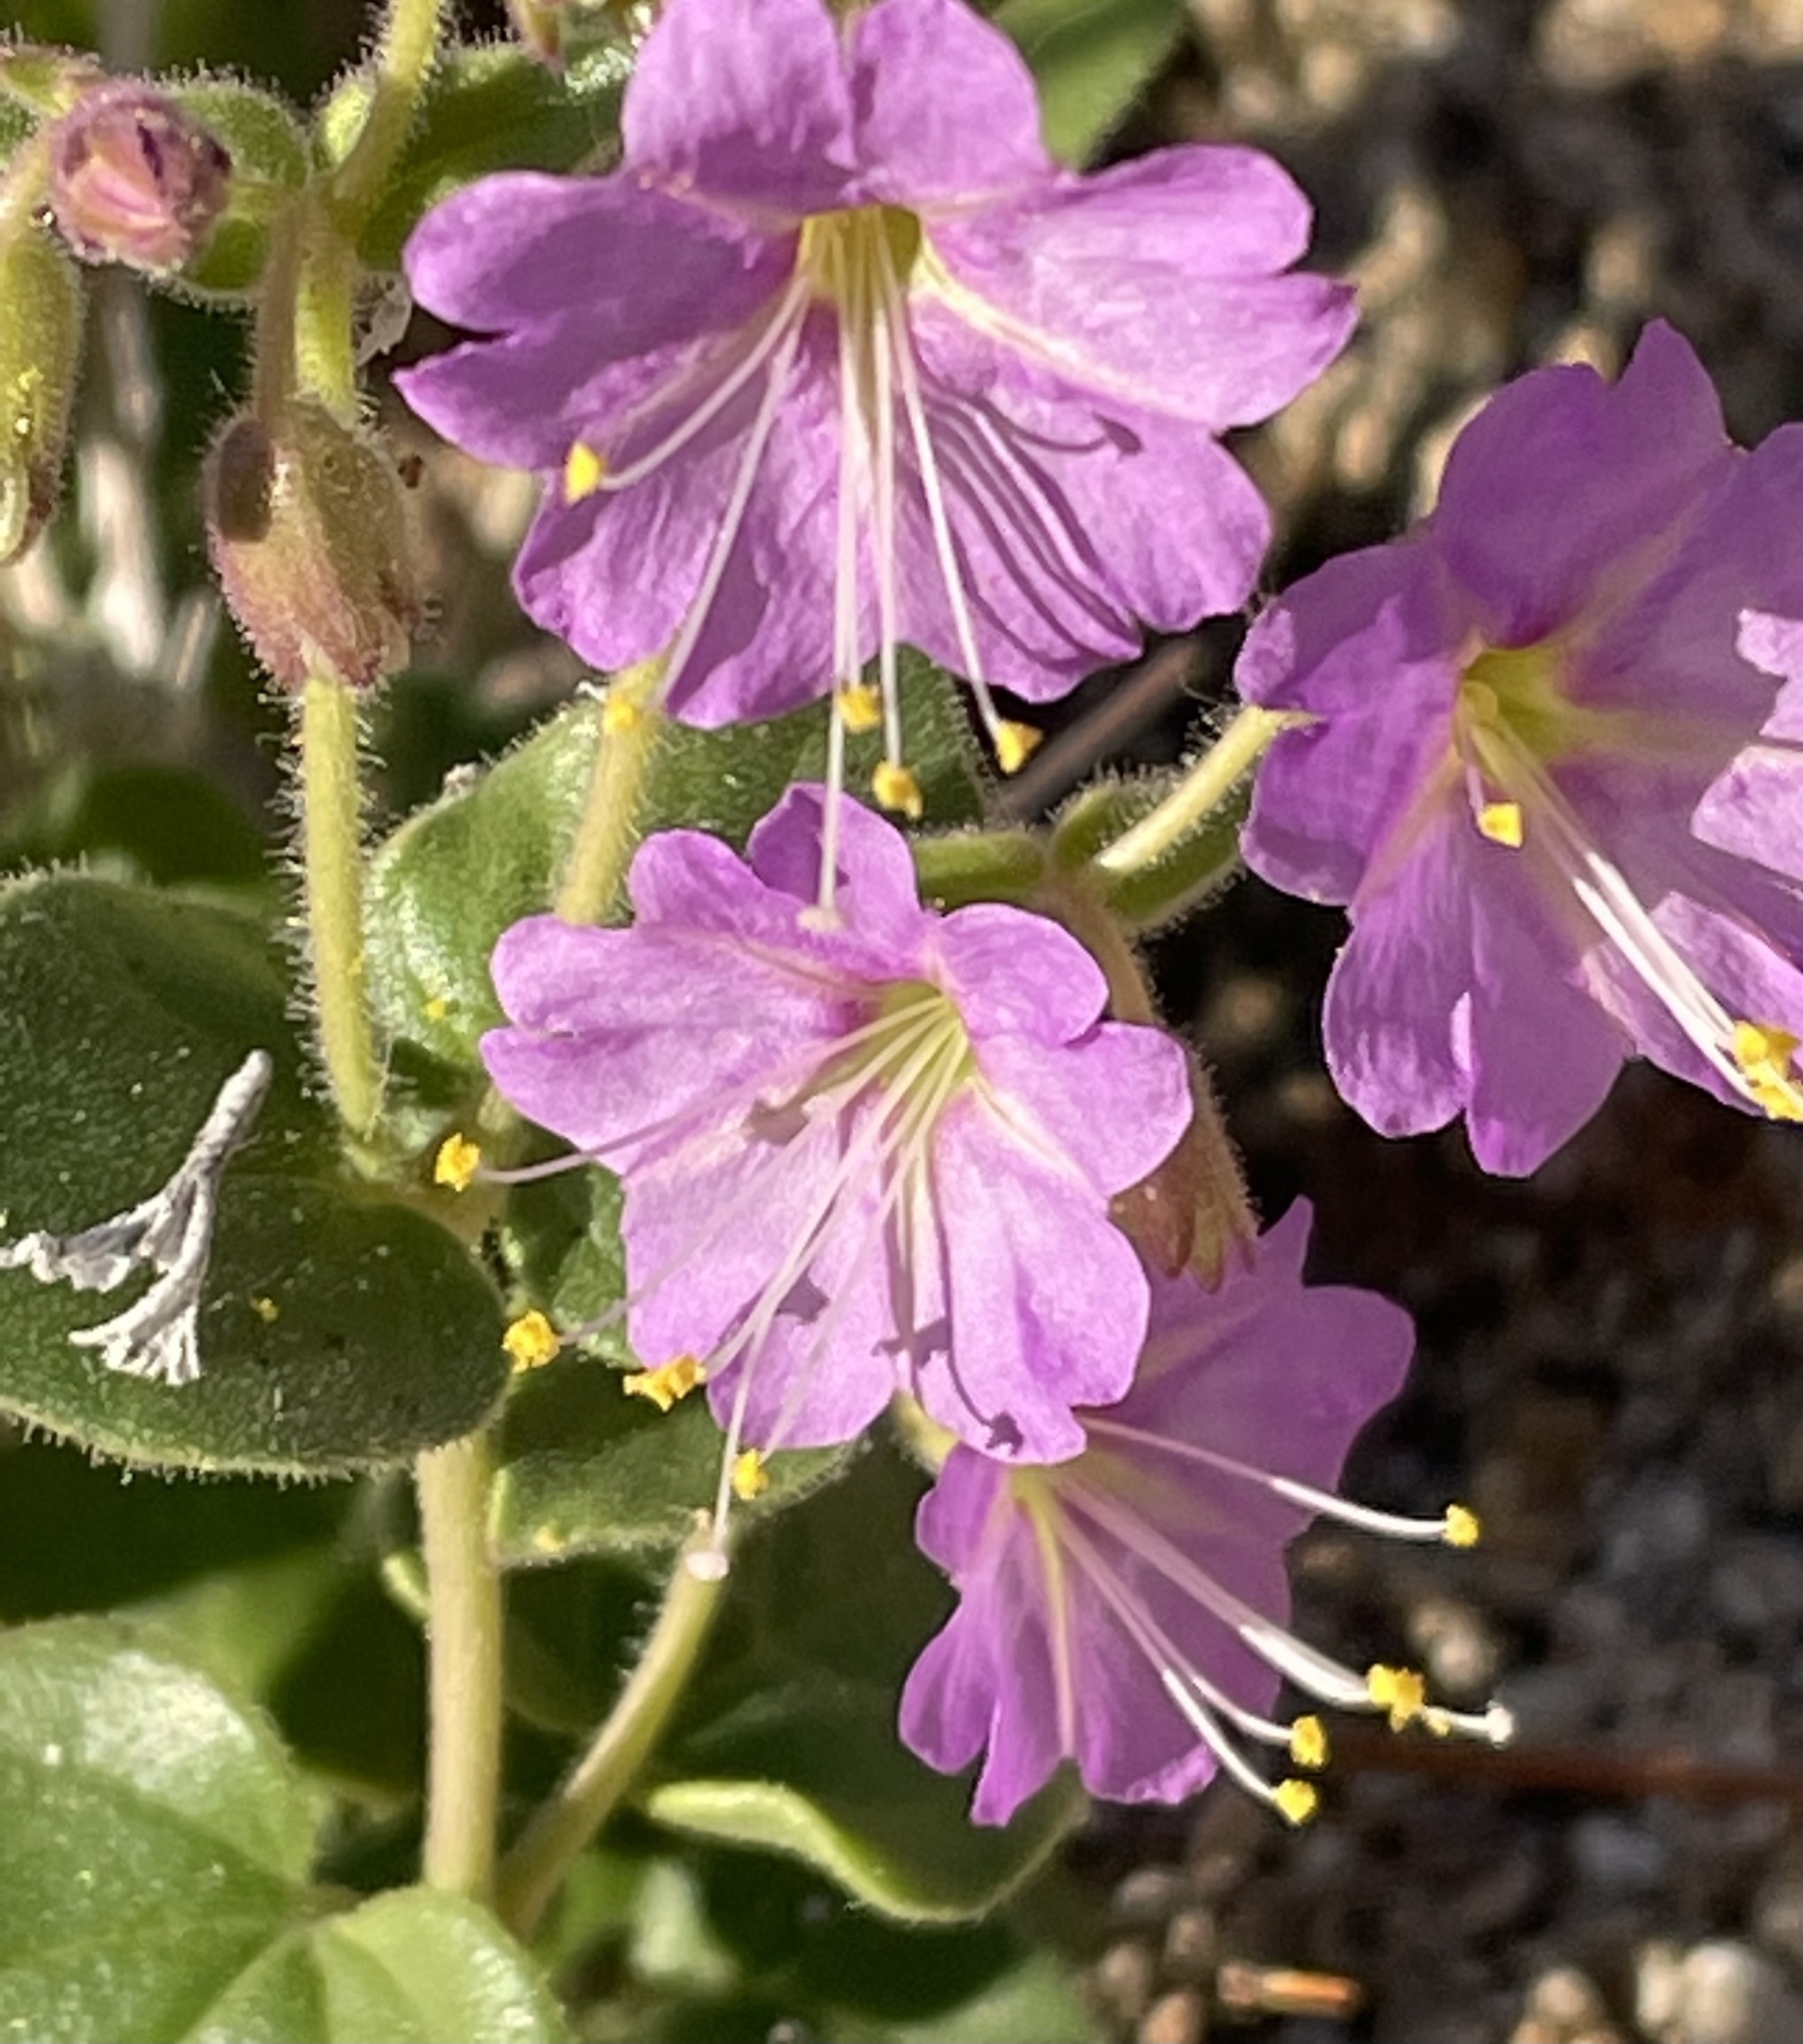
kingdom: Plantae
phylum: Tracheophyta
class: Magnoliopsida
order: Caryophyllales
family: Nyctaginaceae
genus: Mirabilis
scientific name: Mirabilis laevis
